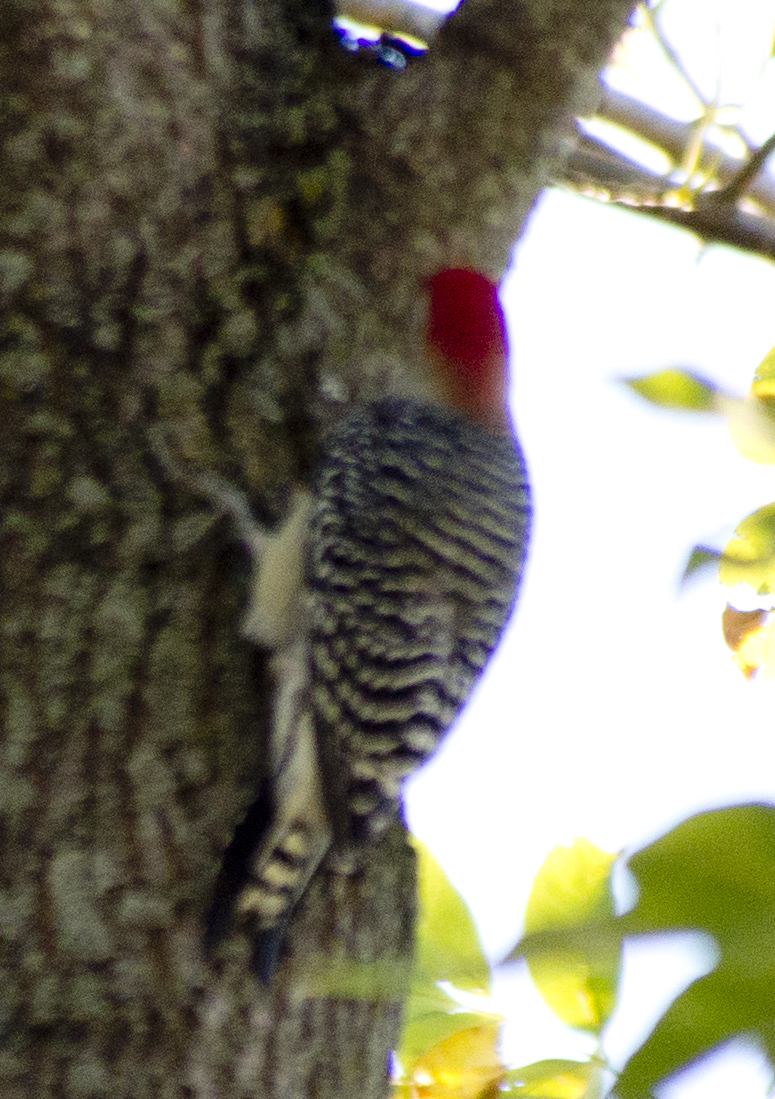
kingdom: Animalia
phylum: Chordata
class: Aves
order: Piciformes
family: Picidae
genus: Melanerpes
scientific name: Melanerpes carolinus
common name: Red-bellied woodpecker
